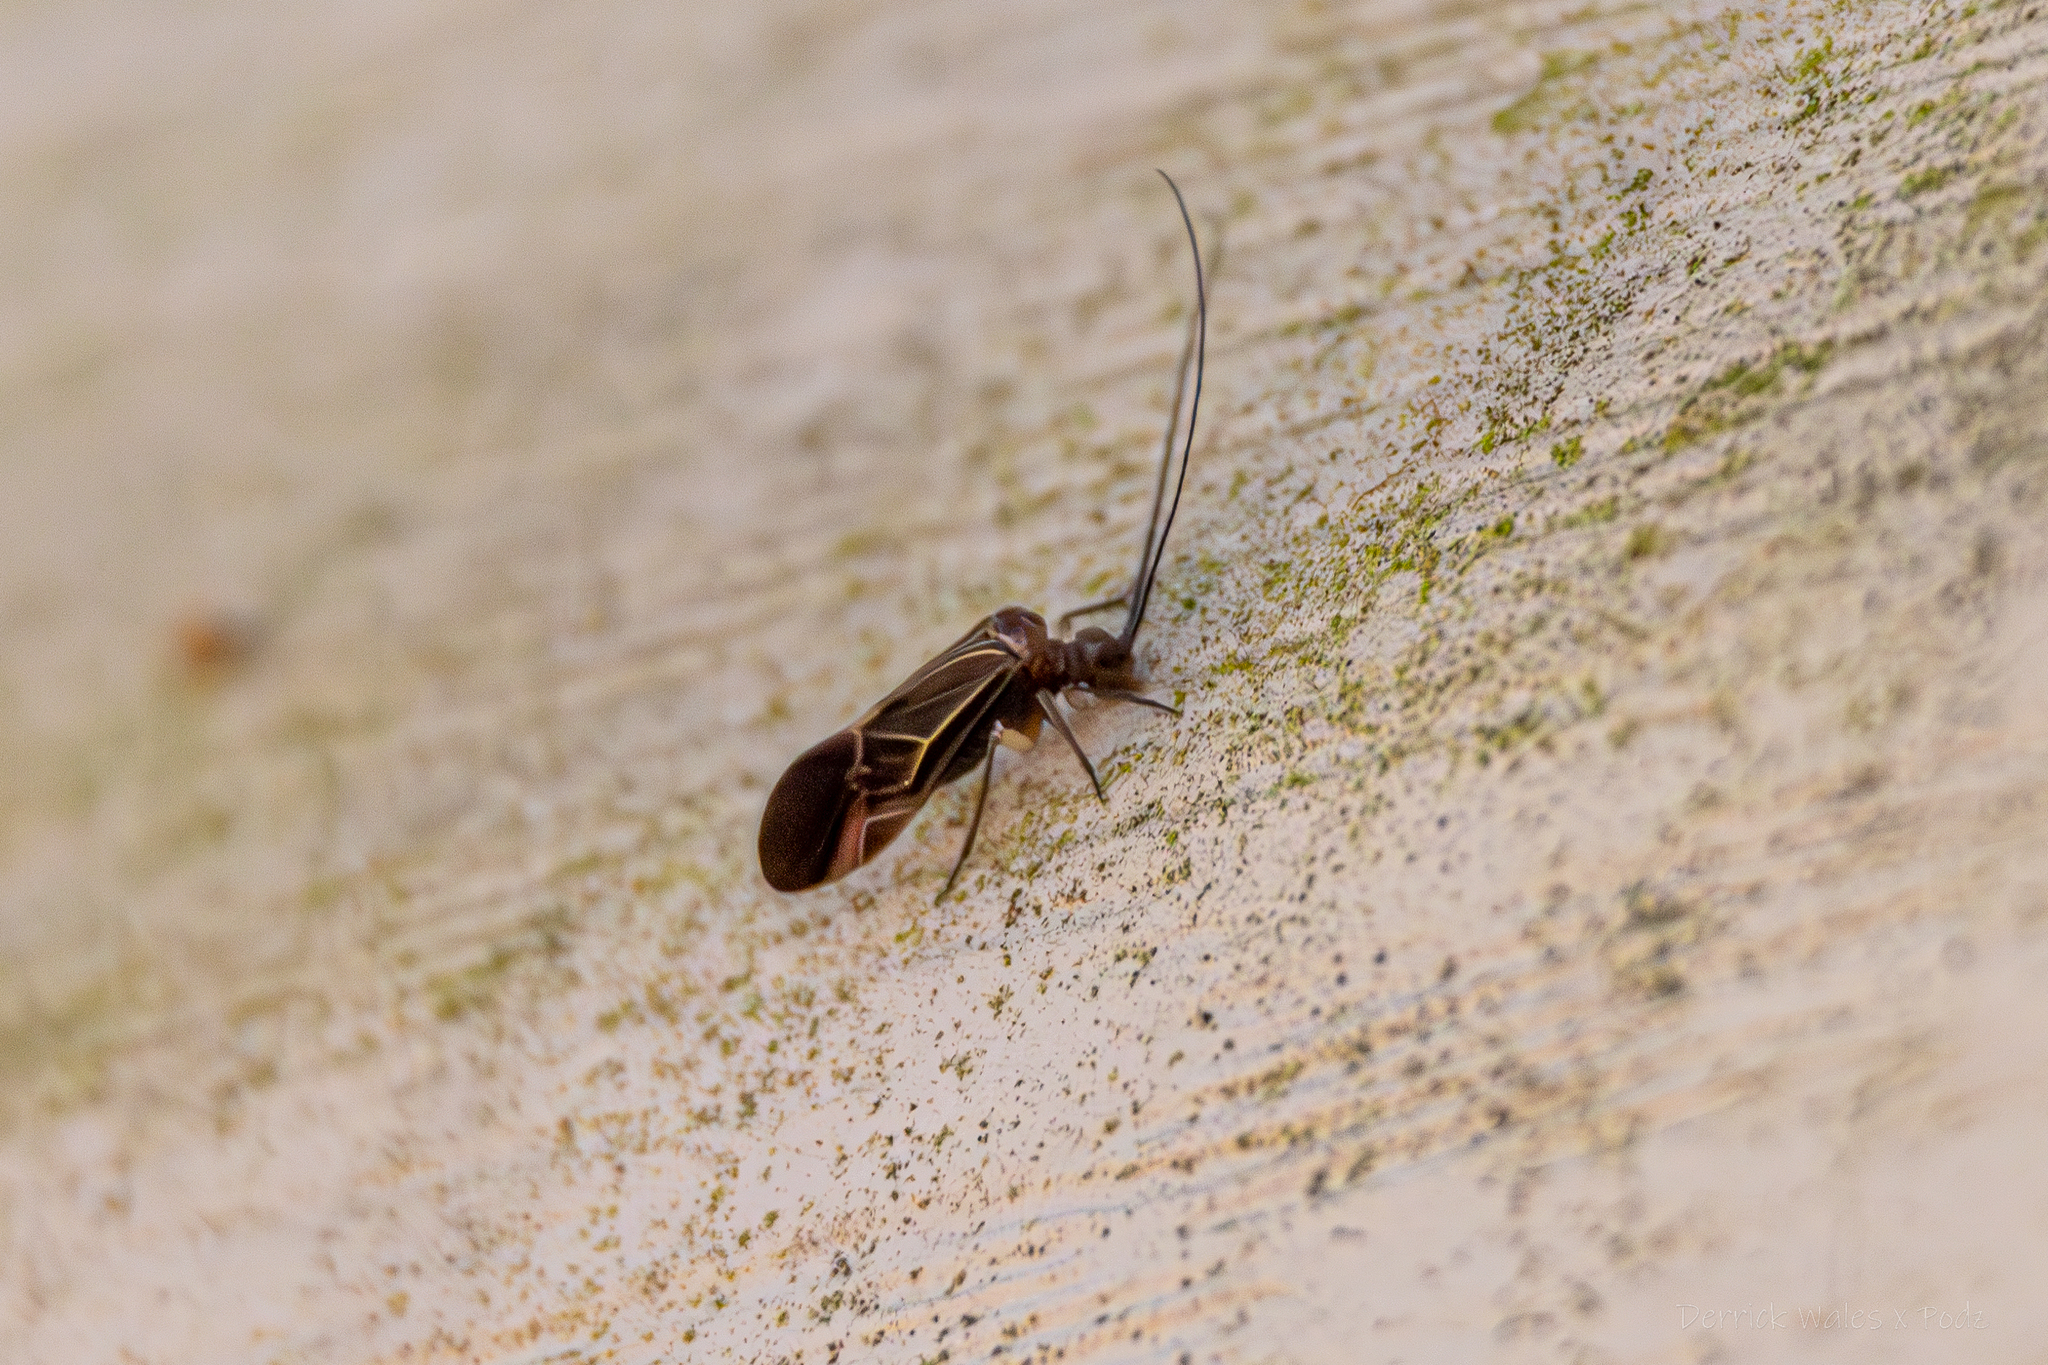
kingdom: Animalia
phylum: Arthropoda
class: Insecta
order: Psocodea
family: Psocidae
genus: Cerastipsocus
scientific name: Cerastipsocus venosus
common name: Tree cattle
